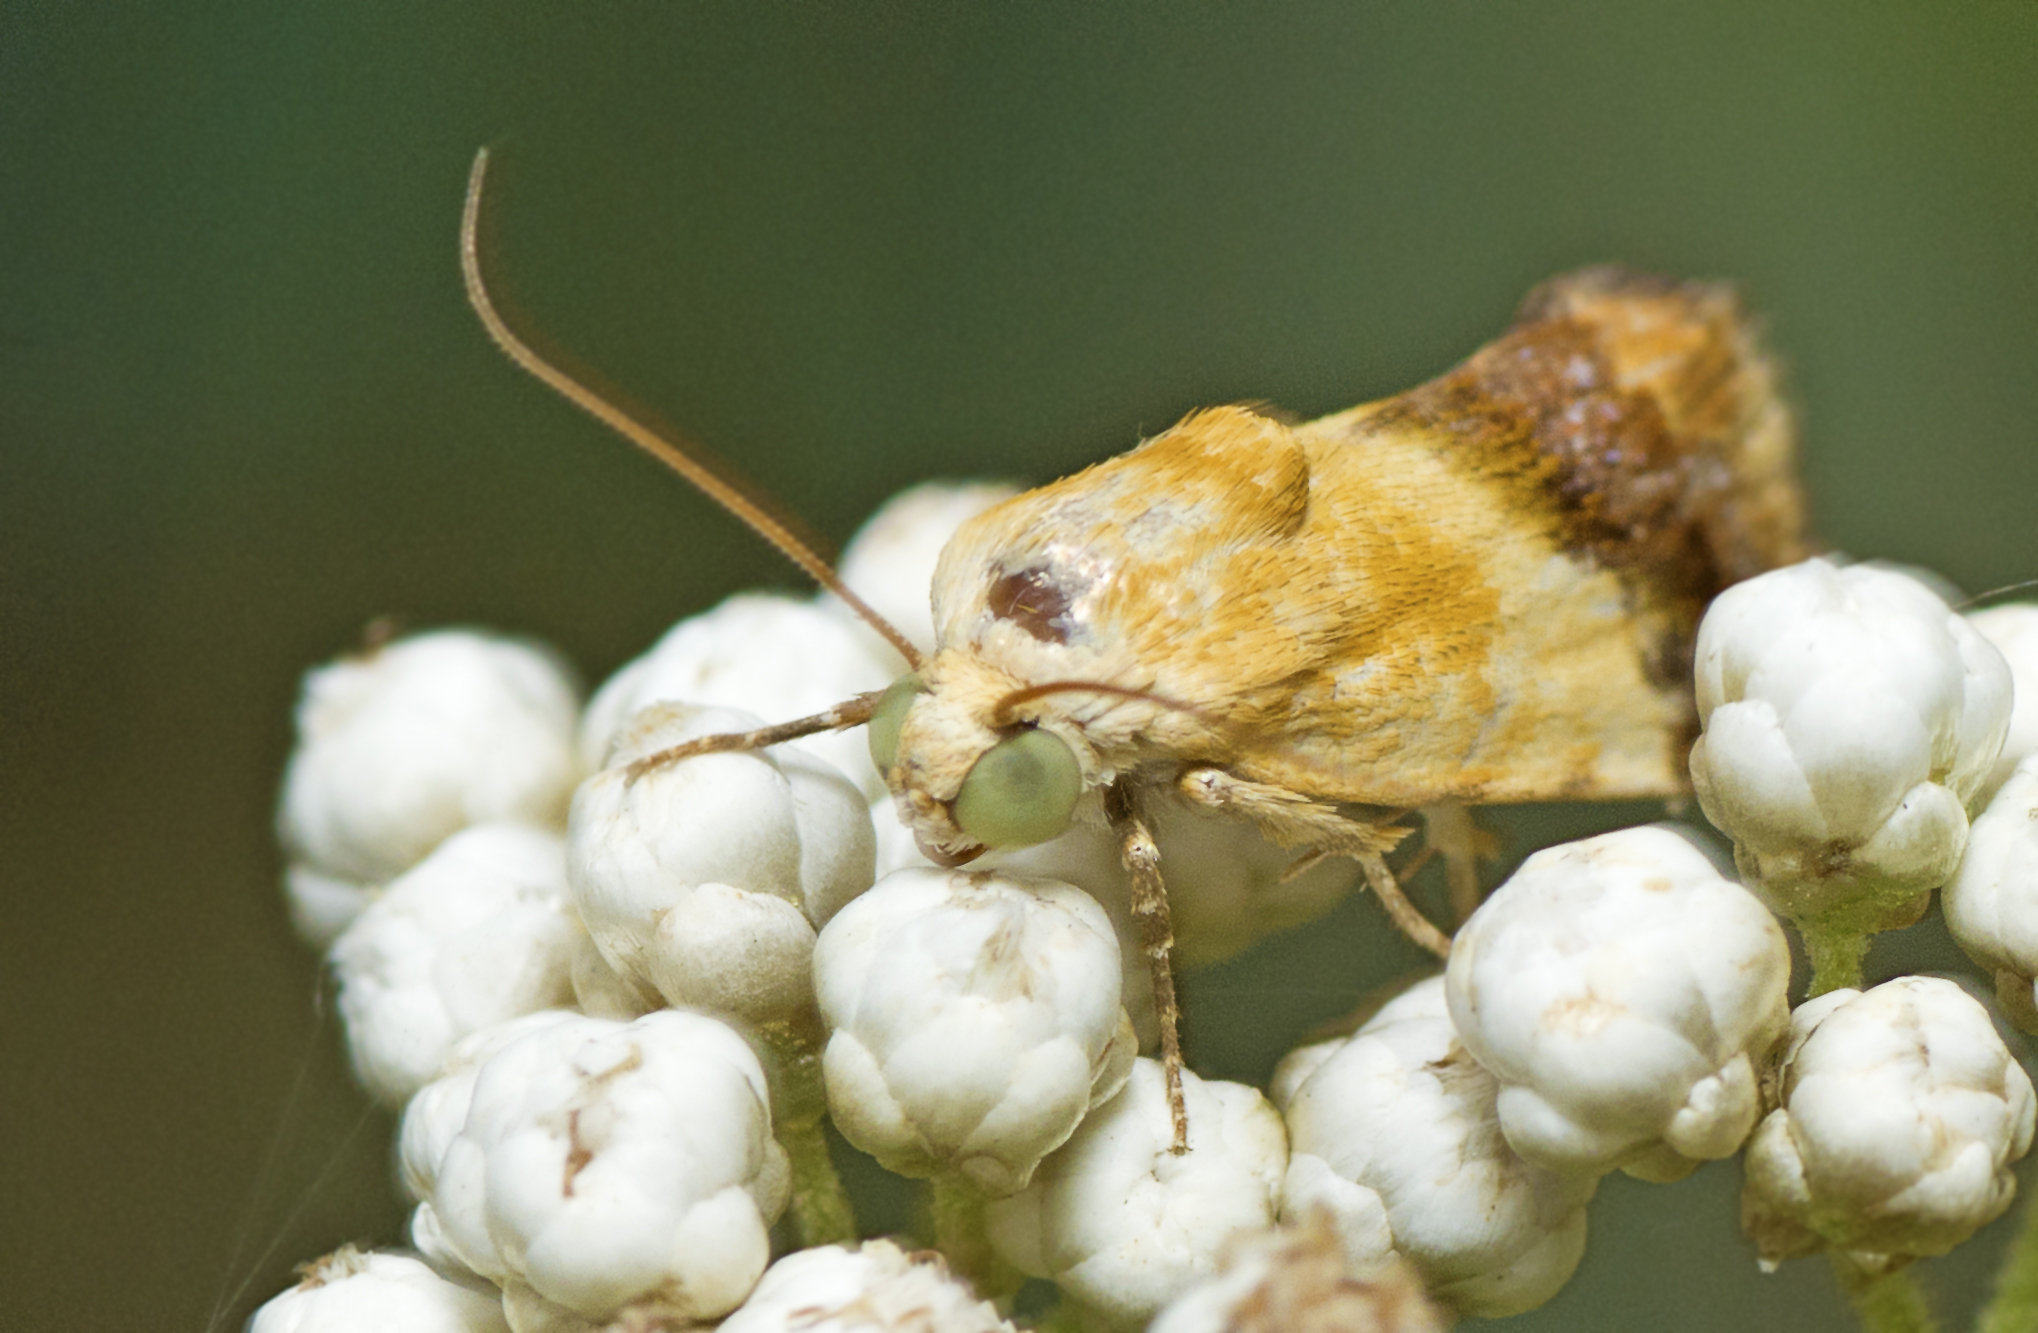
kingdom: Animalia
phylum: Arthropoda
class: Insecta
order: Lepidoptera
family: Noctuidae
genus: Acontia
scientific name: Acontia detrita
